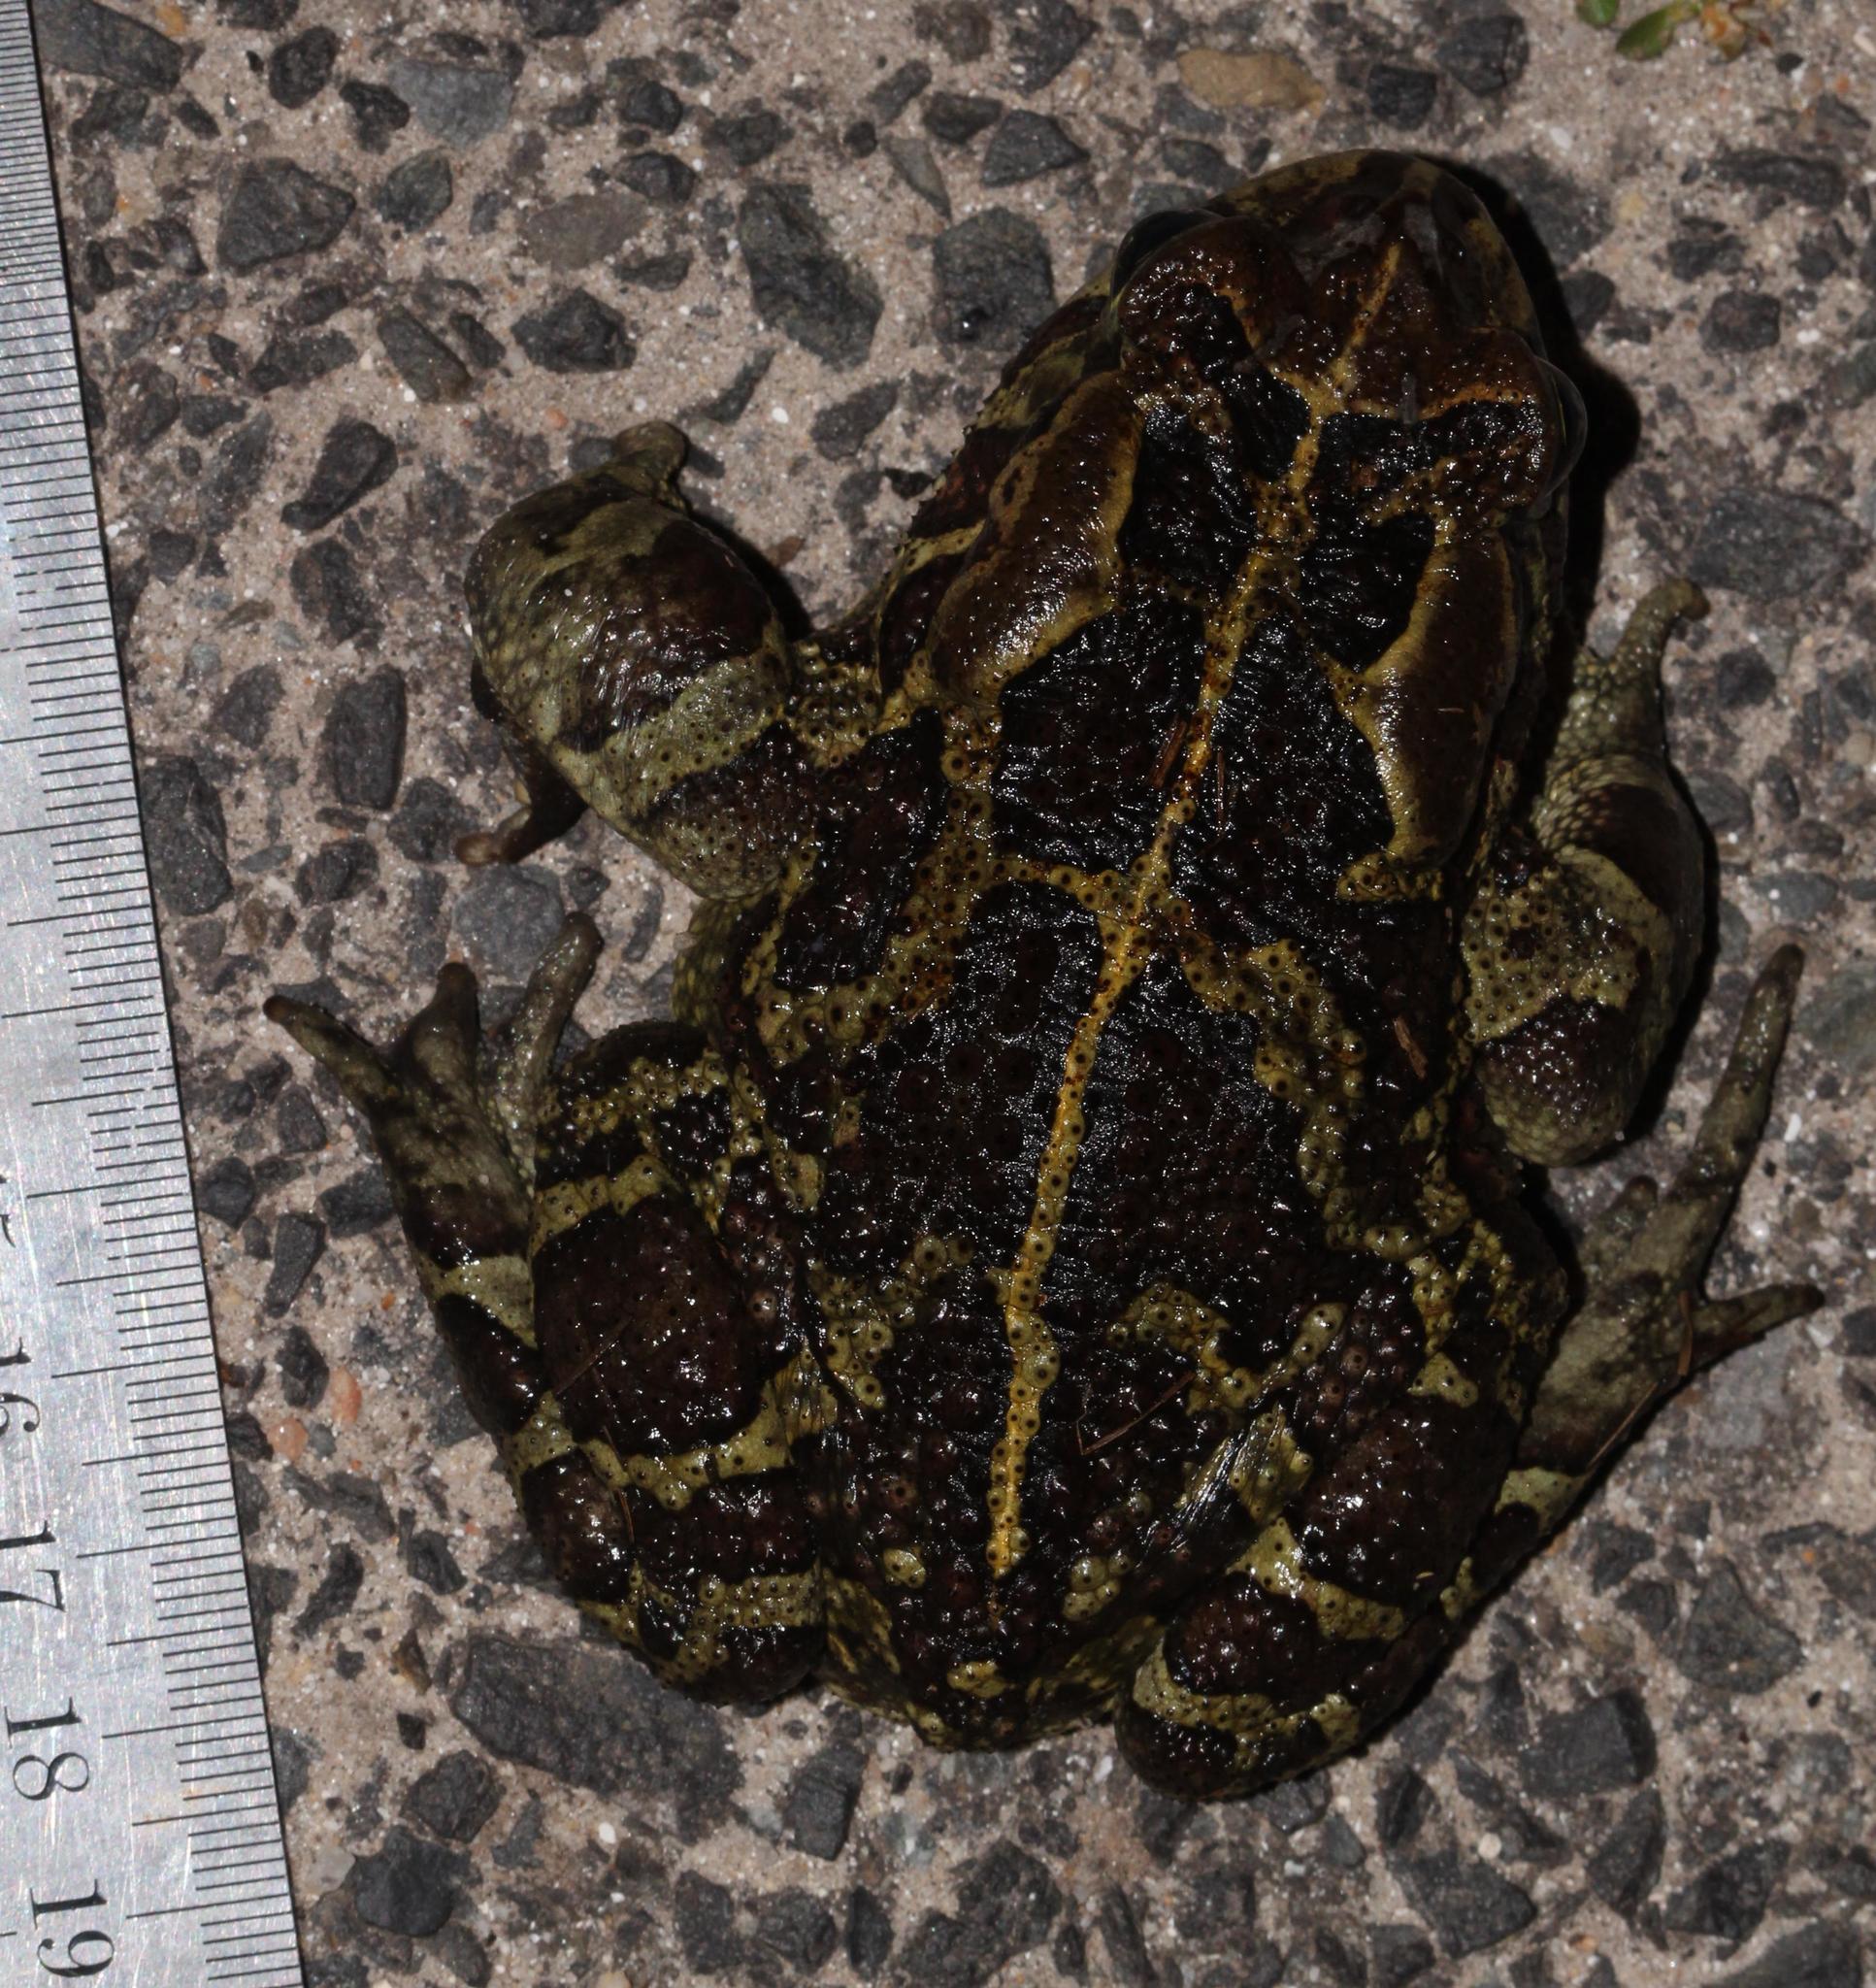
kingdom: Animalia
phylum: Chordata
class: Amphibia
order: Anura
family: Bufonidae
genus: Sclerophrys
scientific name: Sclerophrys pantherina
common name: Panther toad
